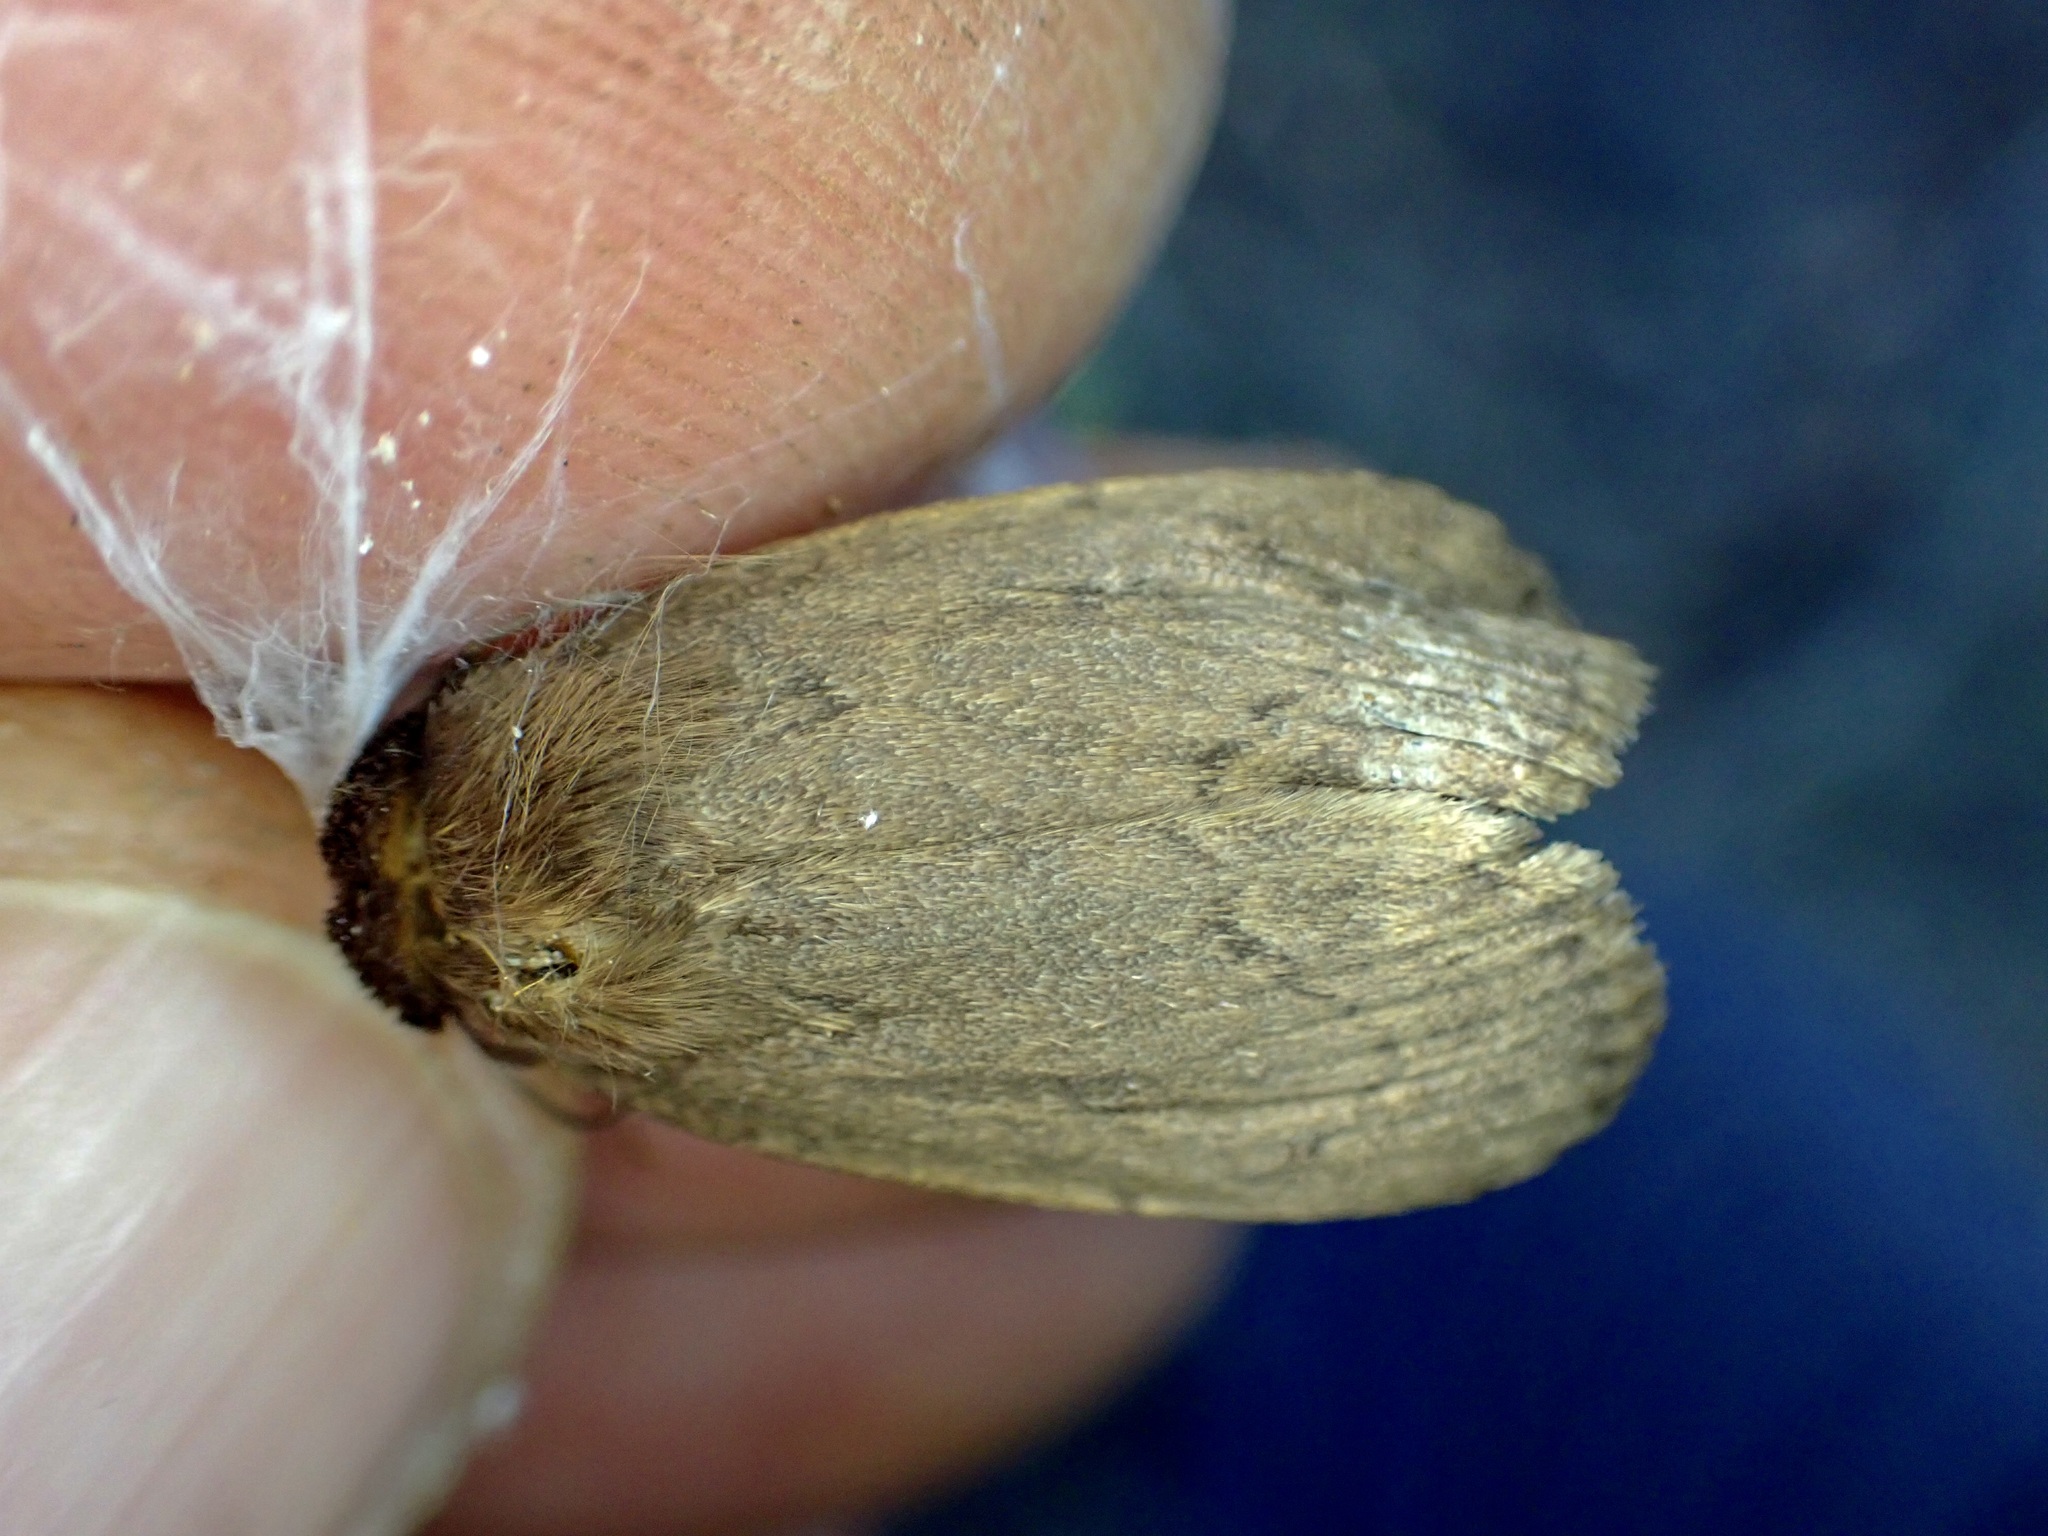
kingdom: Animalia
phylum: Arthropoda
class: Insecta
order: Lepidoptera
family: Noctuidae
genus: Bityla
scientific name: Bityla defigurata
